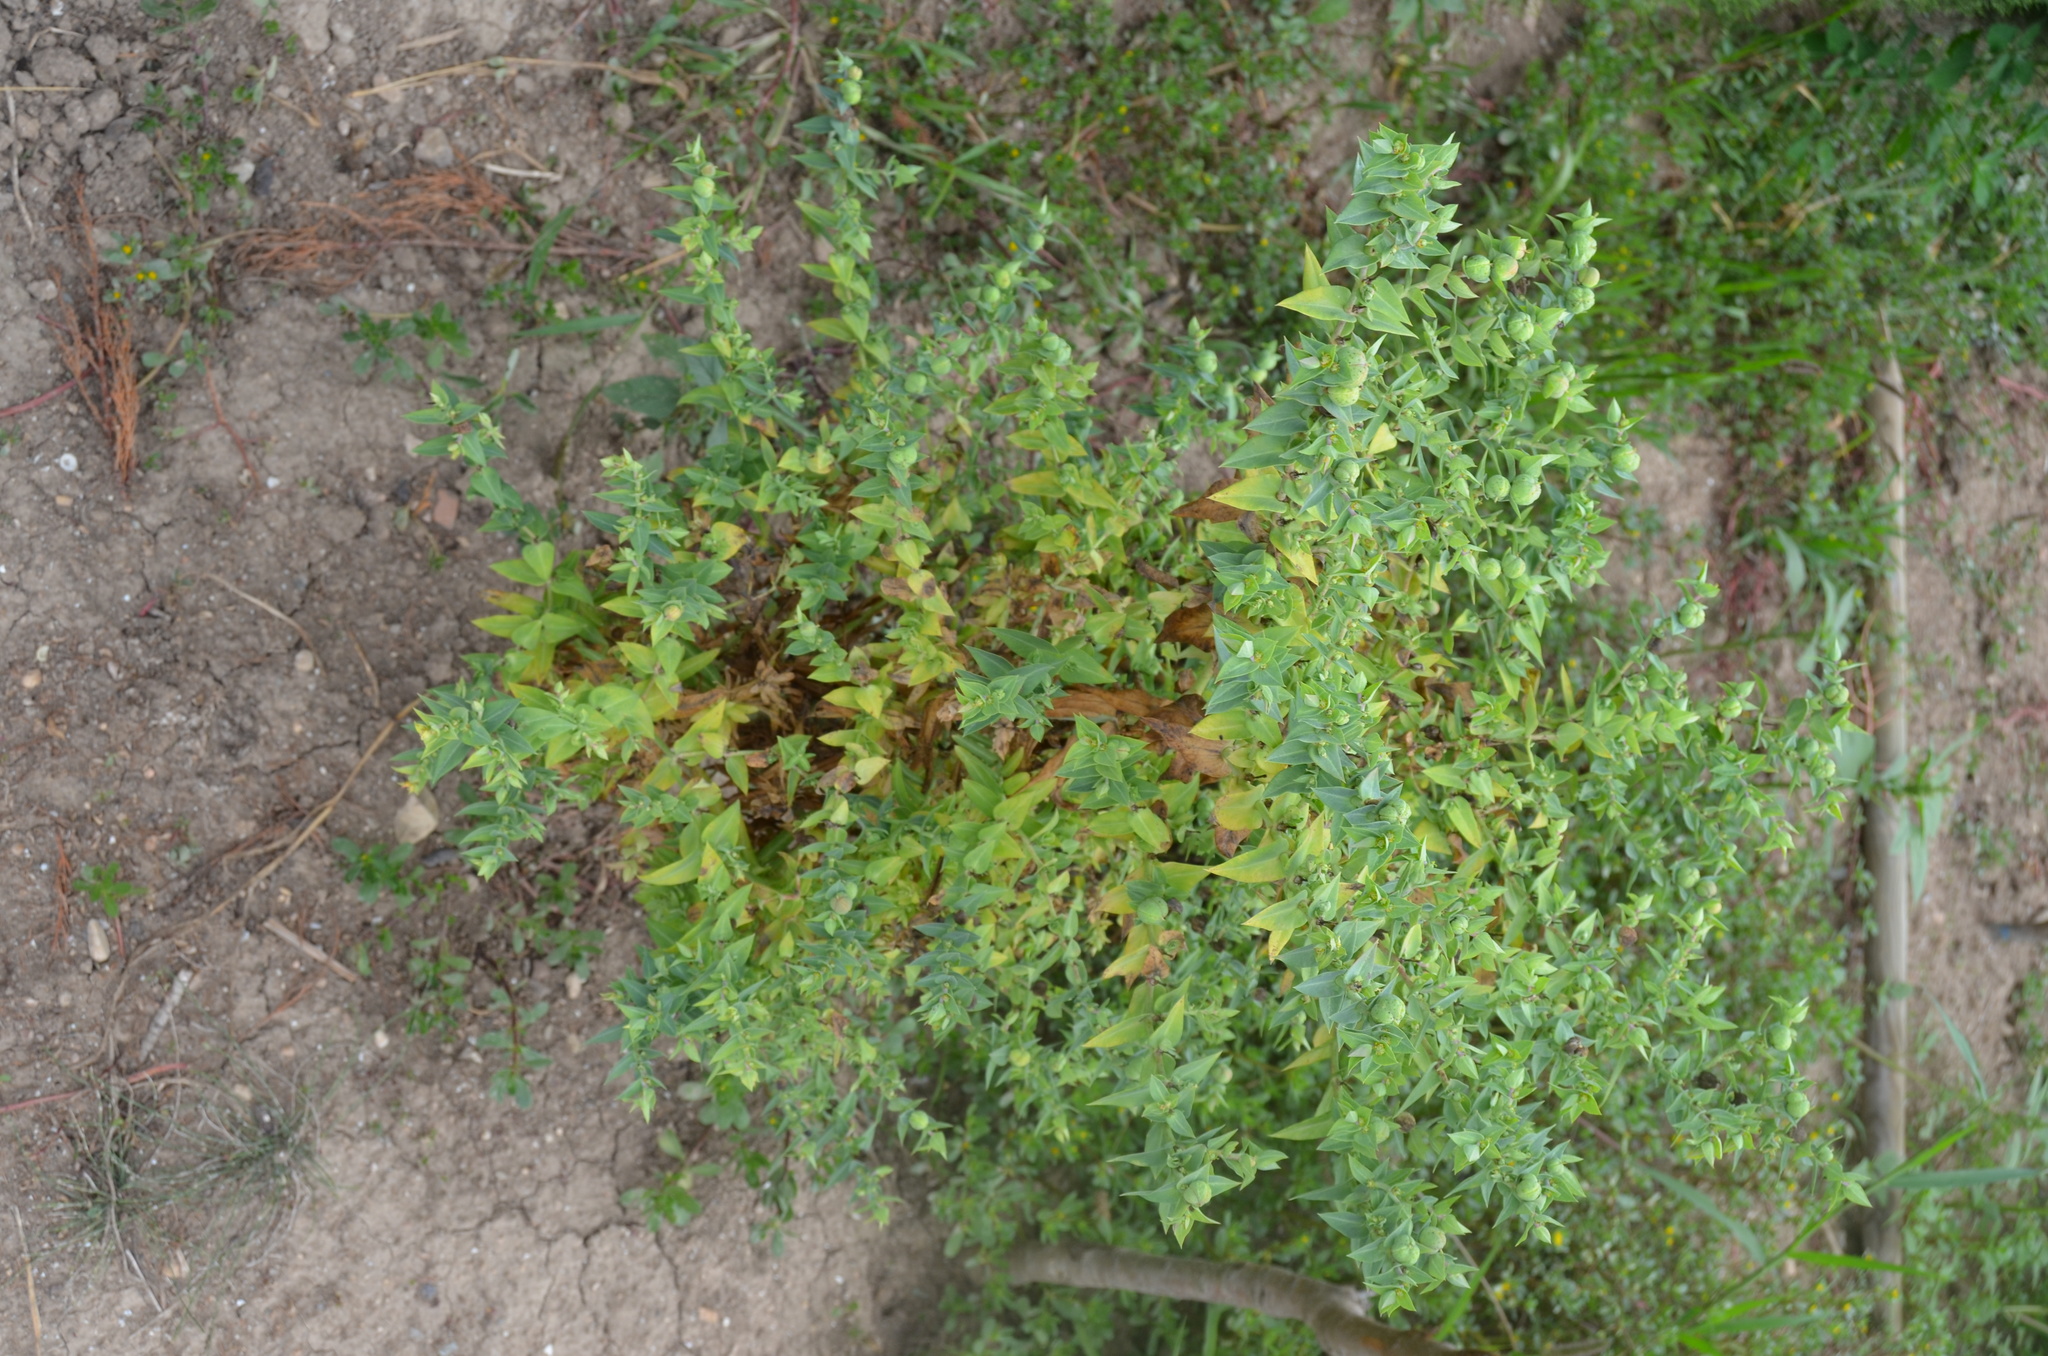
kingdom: Plantae
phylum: Tracheophyta
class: Magnoliopsida
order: Malpighiales
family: Euphorbiaceae
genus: Euphorbia
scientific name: Euphorbia lathyris
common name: Caper spurge
